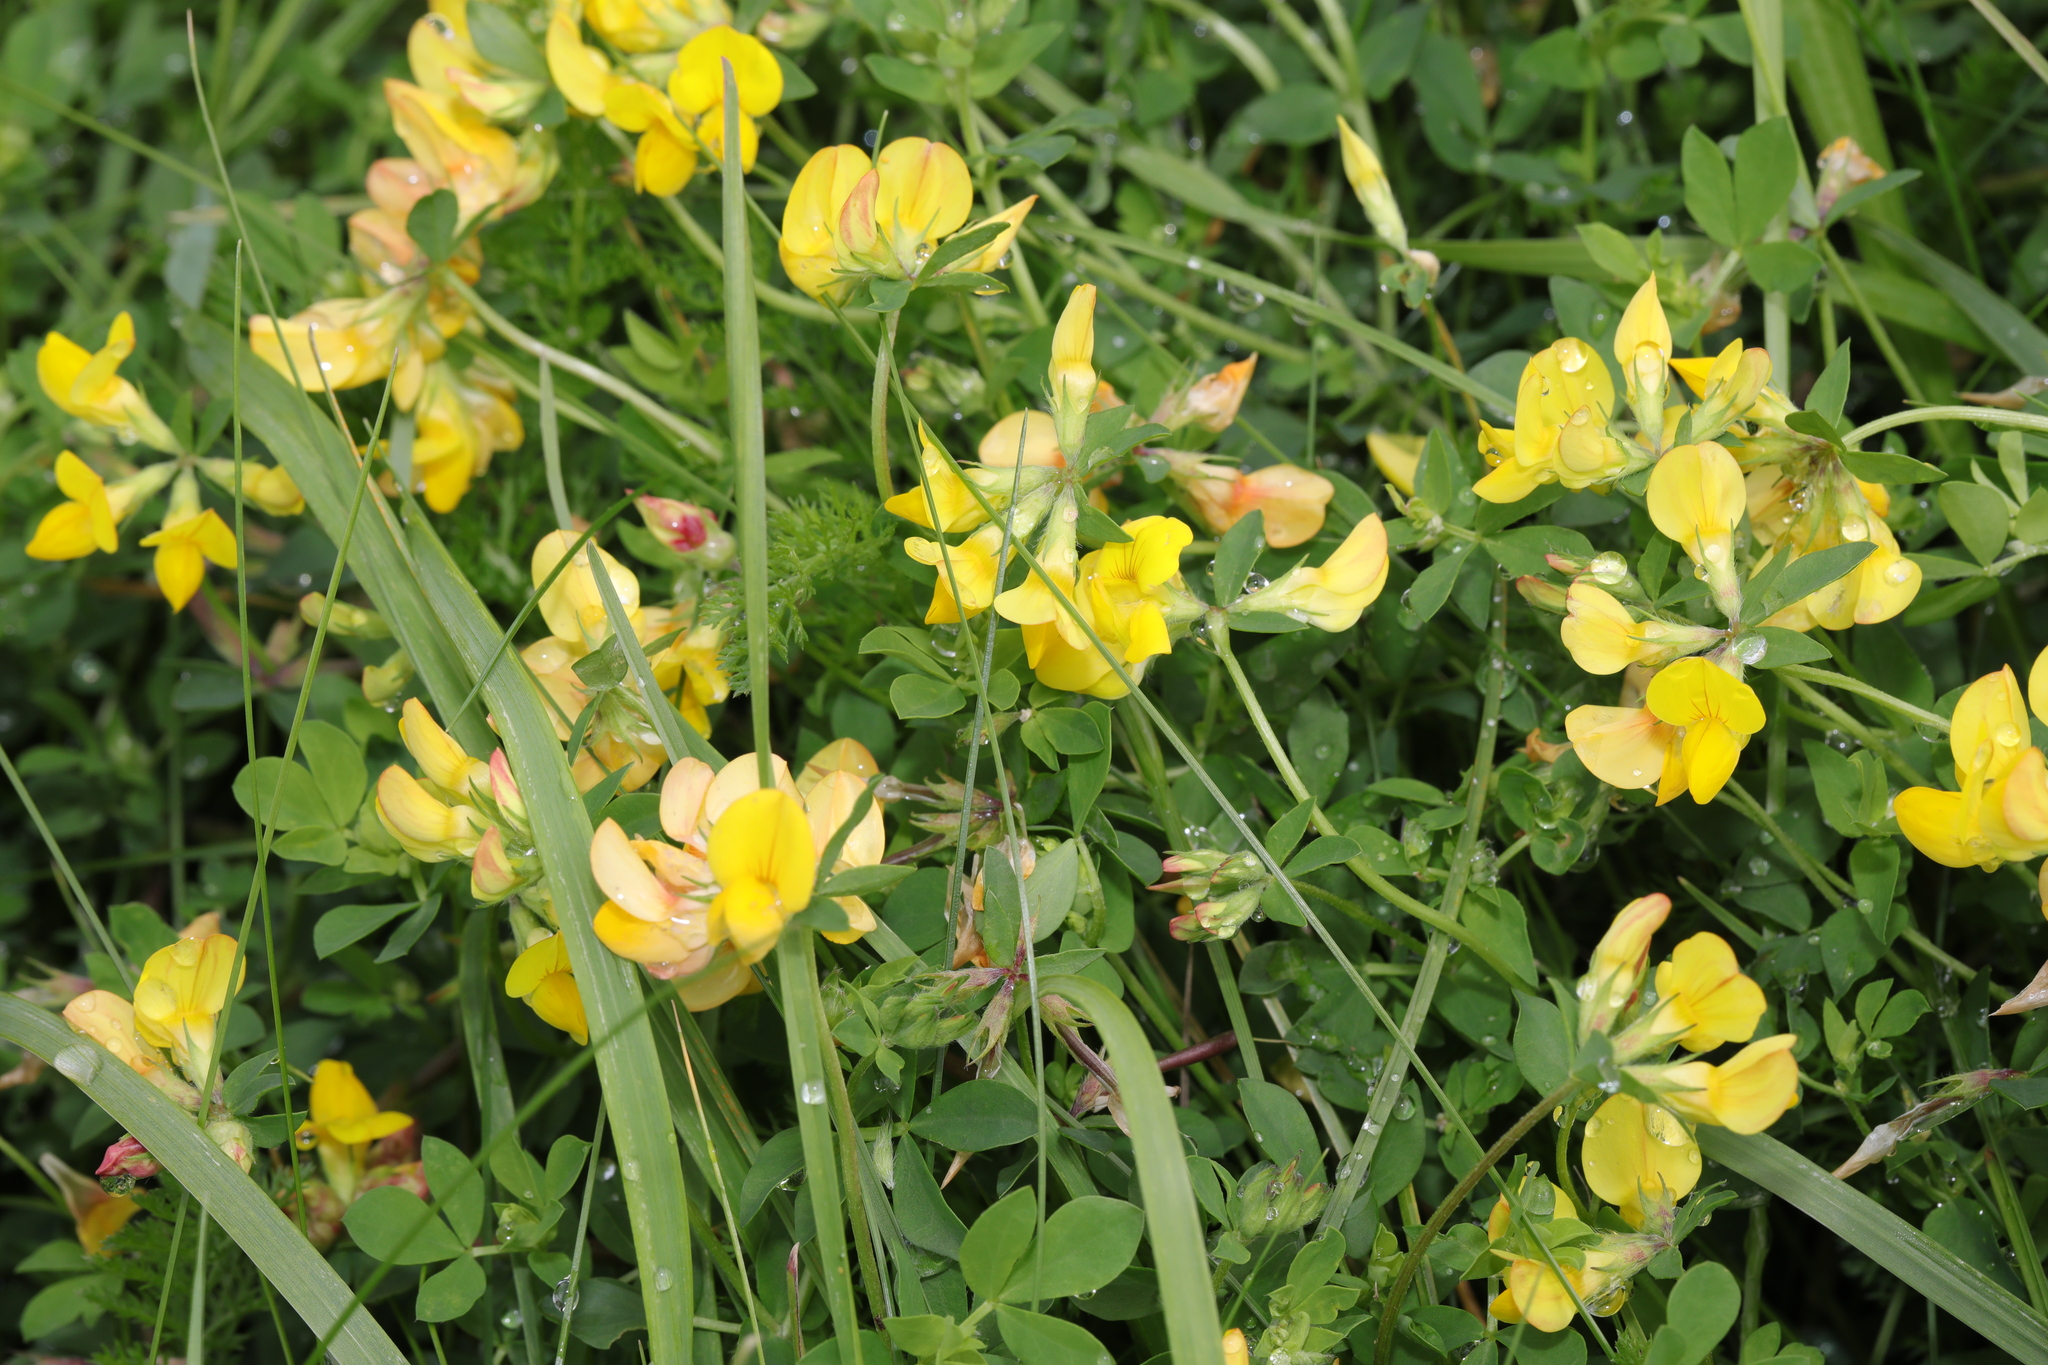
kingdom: Plantae
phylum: Tracheophyta
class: Magnoliopsida
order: Fabales
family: Fabaceae
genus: Lotus
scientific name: Lotus corniculatus
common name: Common bird's-foot-trefoil
